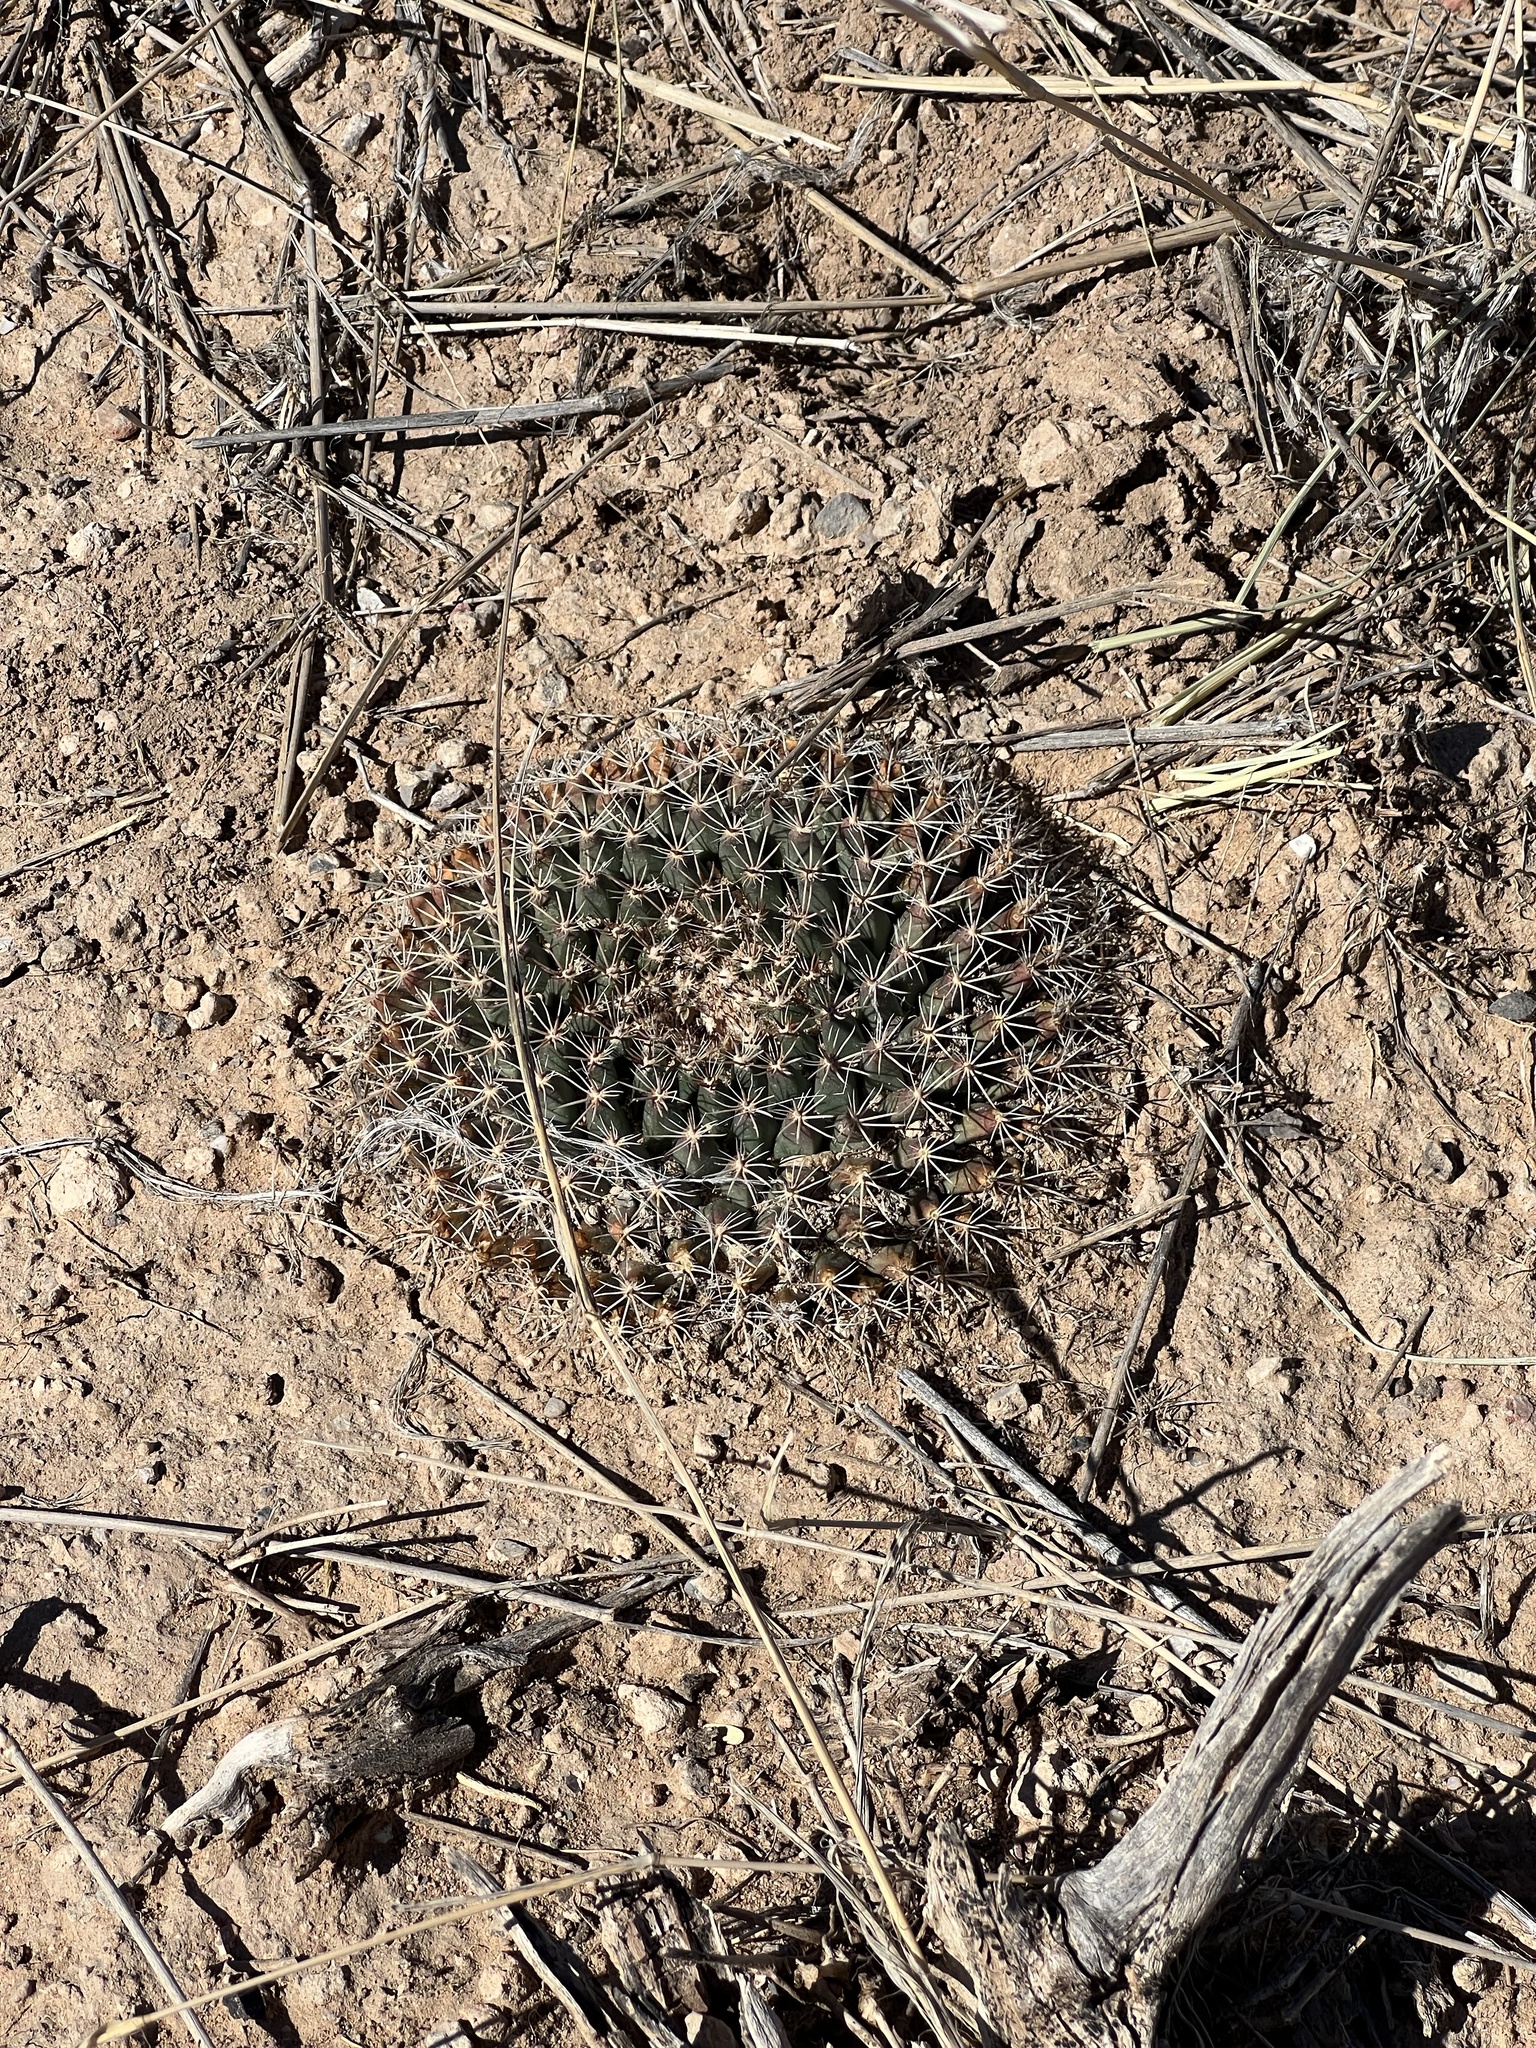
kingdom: Plantae
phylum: Tracheophyta
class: Magnoliopsida
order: Caryophyllales
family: Cactaceae
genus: Mammillaria
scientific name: Mammillaria heyderi
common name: Little nipple cactus
